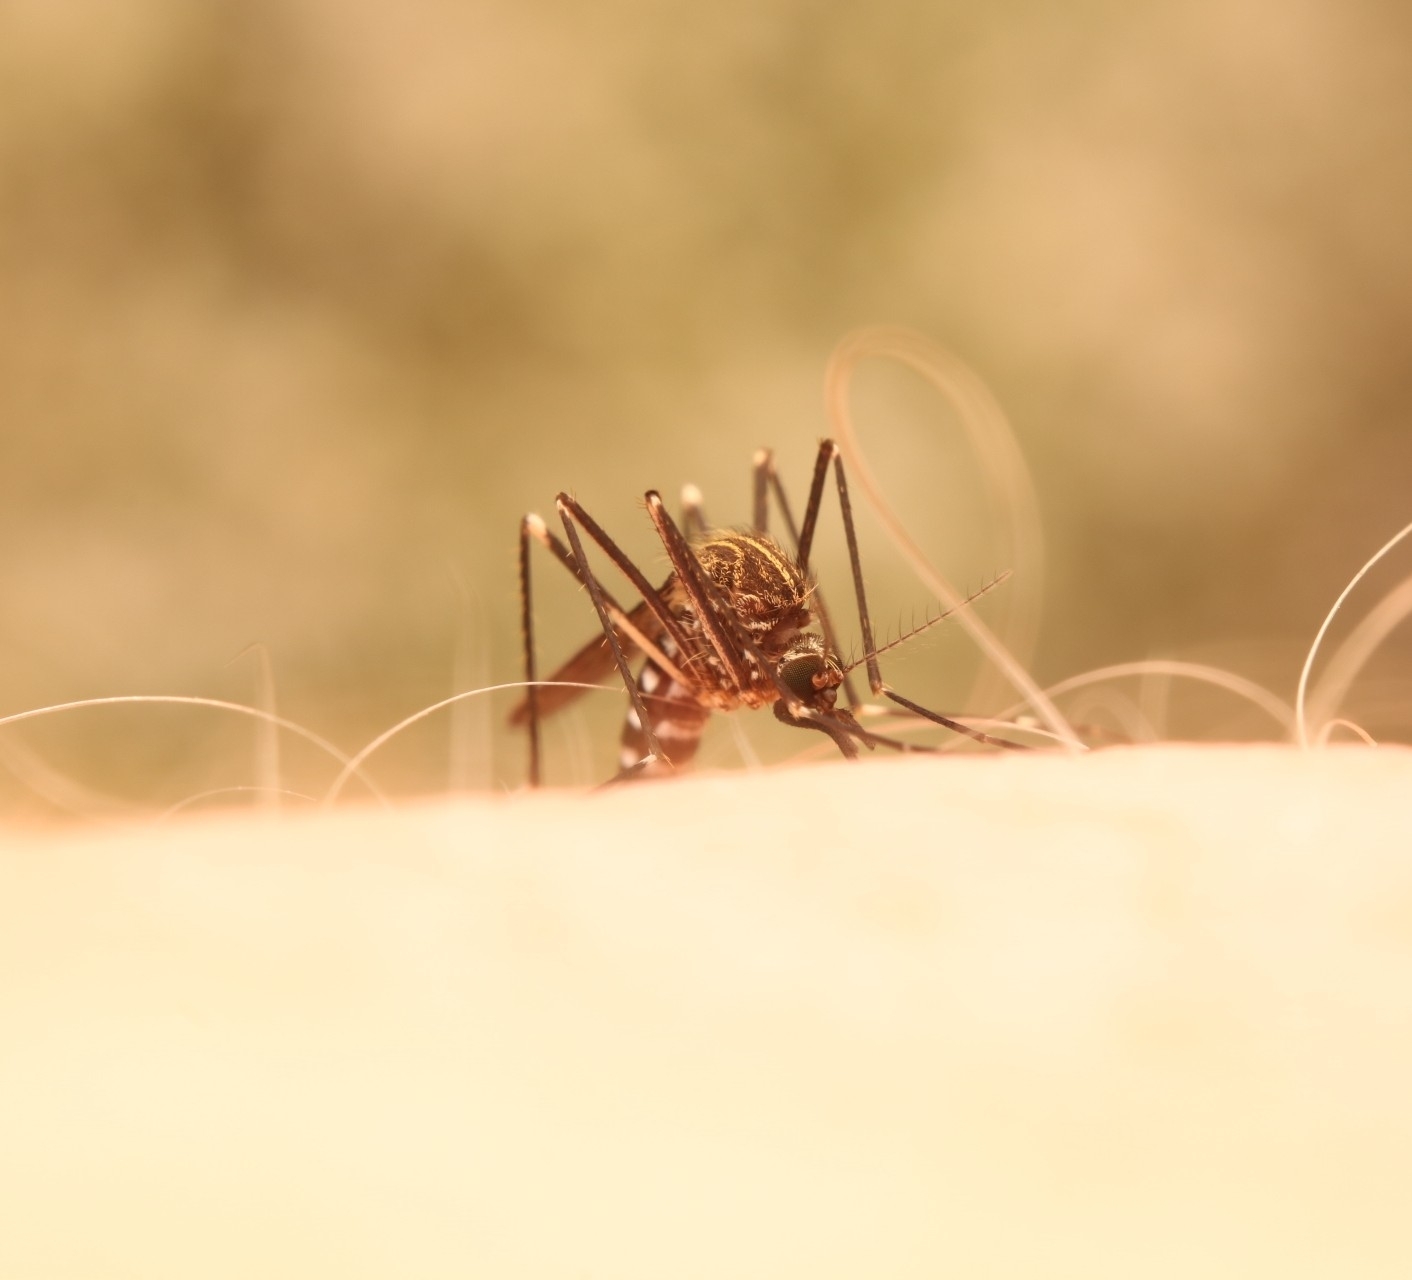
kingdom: Animalia
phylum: Arthropoda
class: Insecta
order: Diptera
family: Culicidae
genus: Aedes
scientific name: Aedes japonicus
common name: Asian bush mosquito
